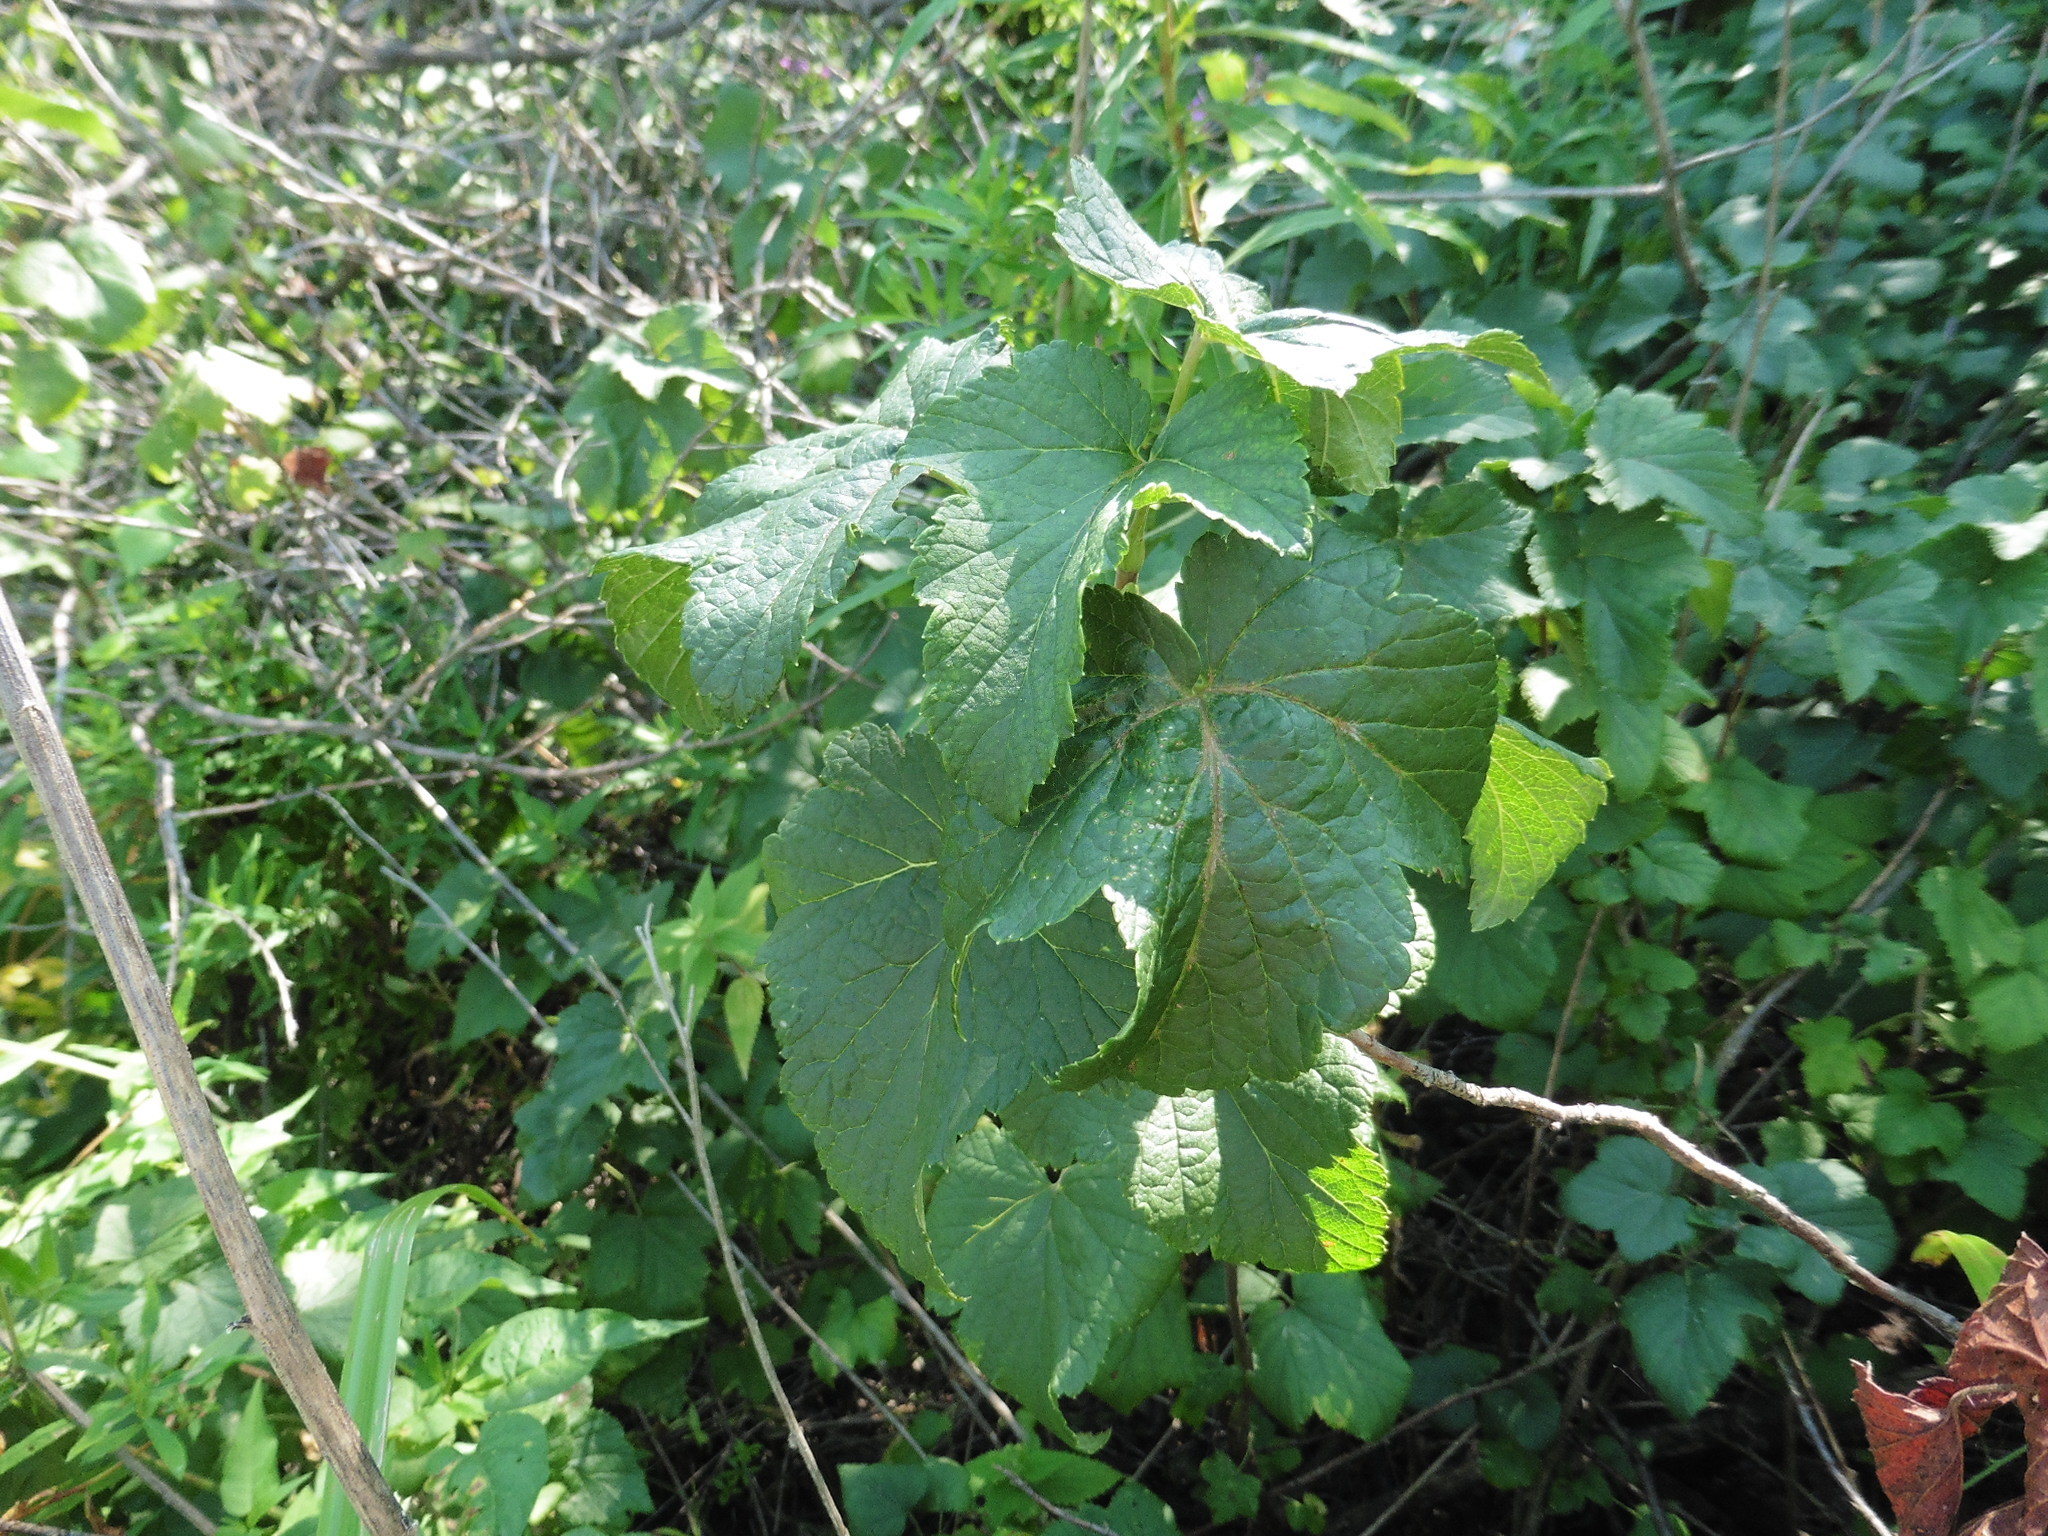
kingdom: Plantae
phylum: Tracheophyta
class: Magnoliopsida
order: Saxifragales
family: Grossulariaceae
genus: Ribes
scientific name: Ribes nigrum
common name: Black currant
